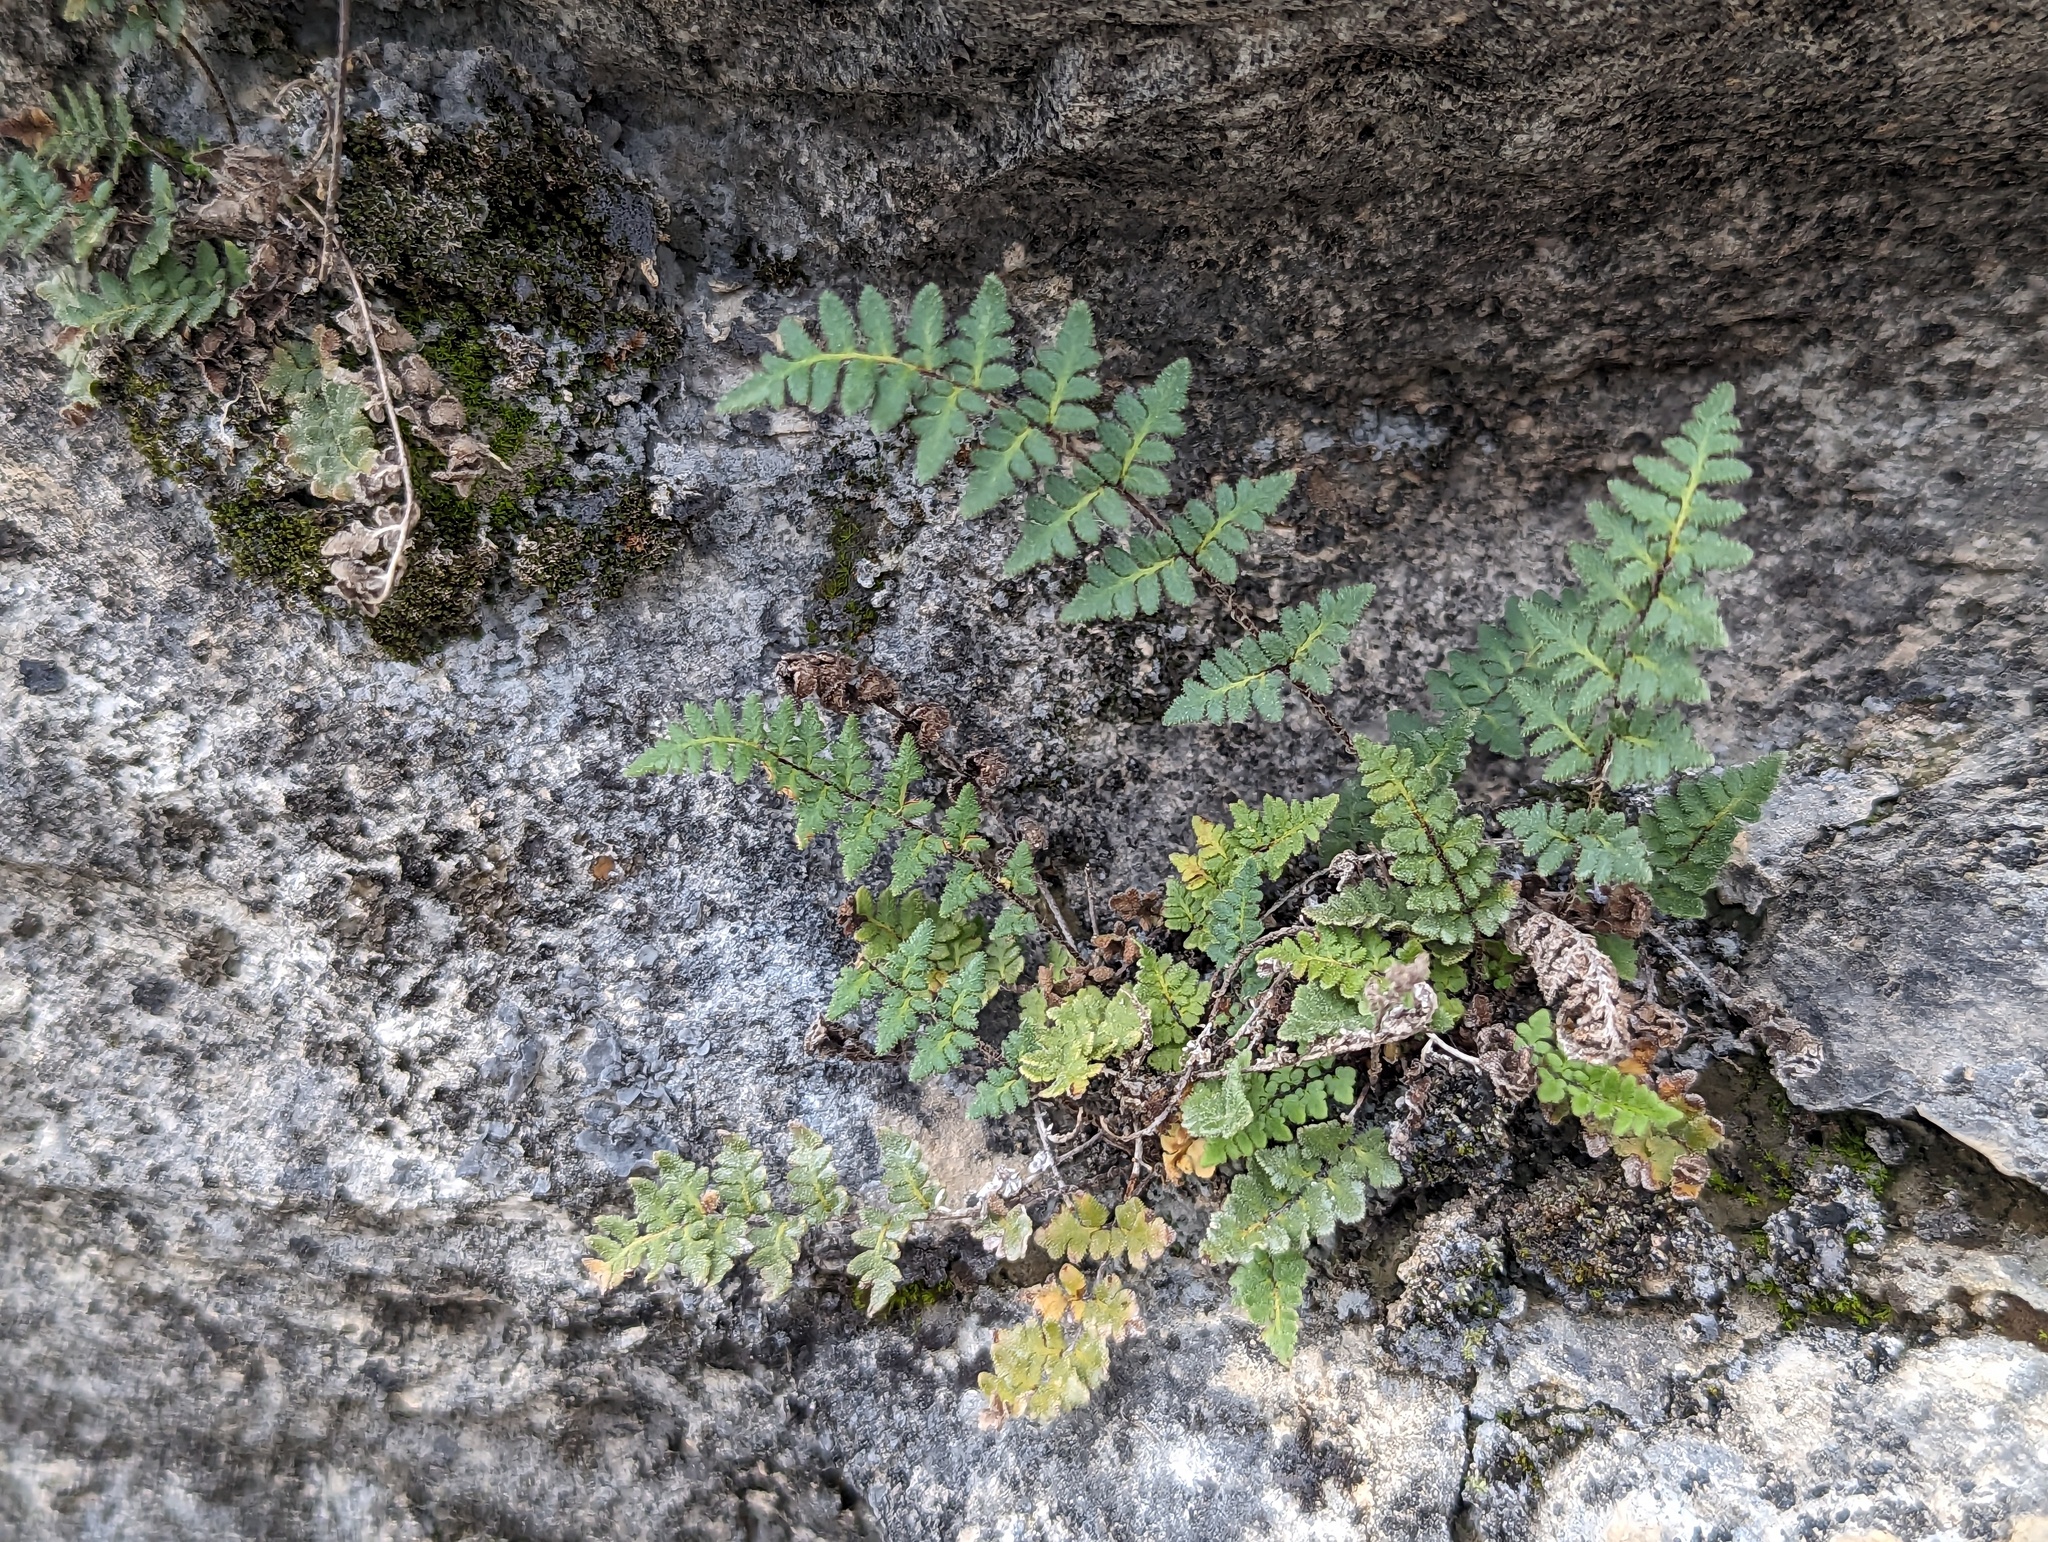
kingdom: Plantae
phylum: Tracheophyta
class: Polypodiopsida
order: Polypodiales
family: Pteridaceae
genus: Myriopteris
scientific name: Myriopteris scabra
